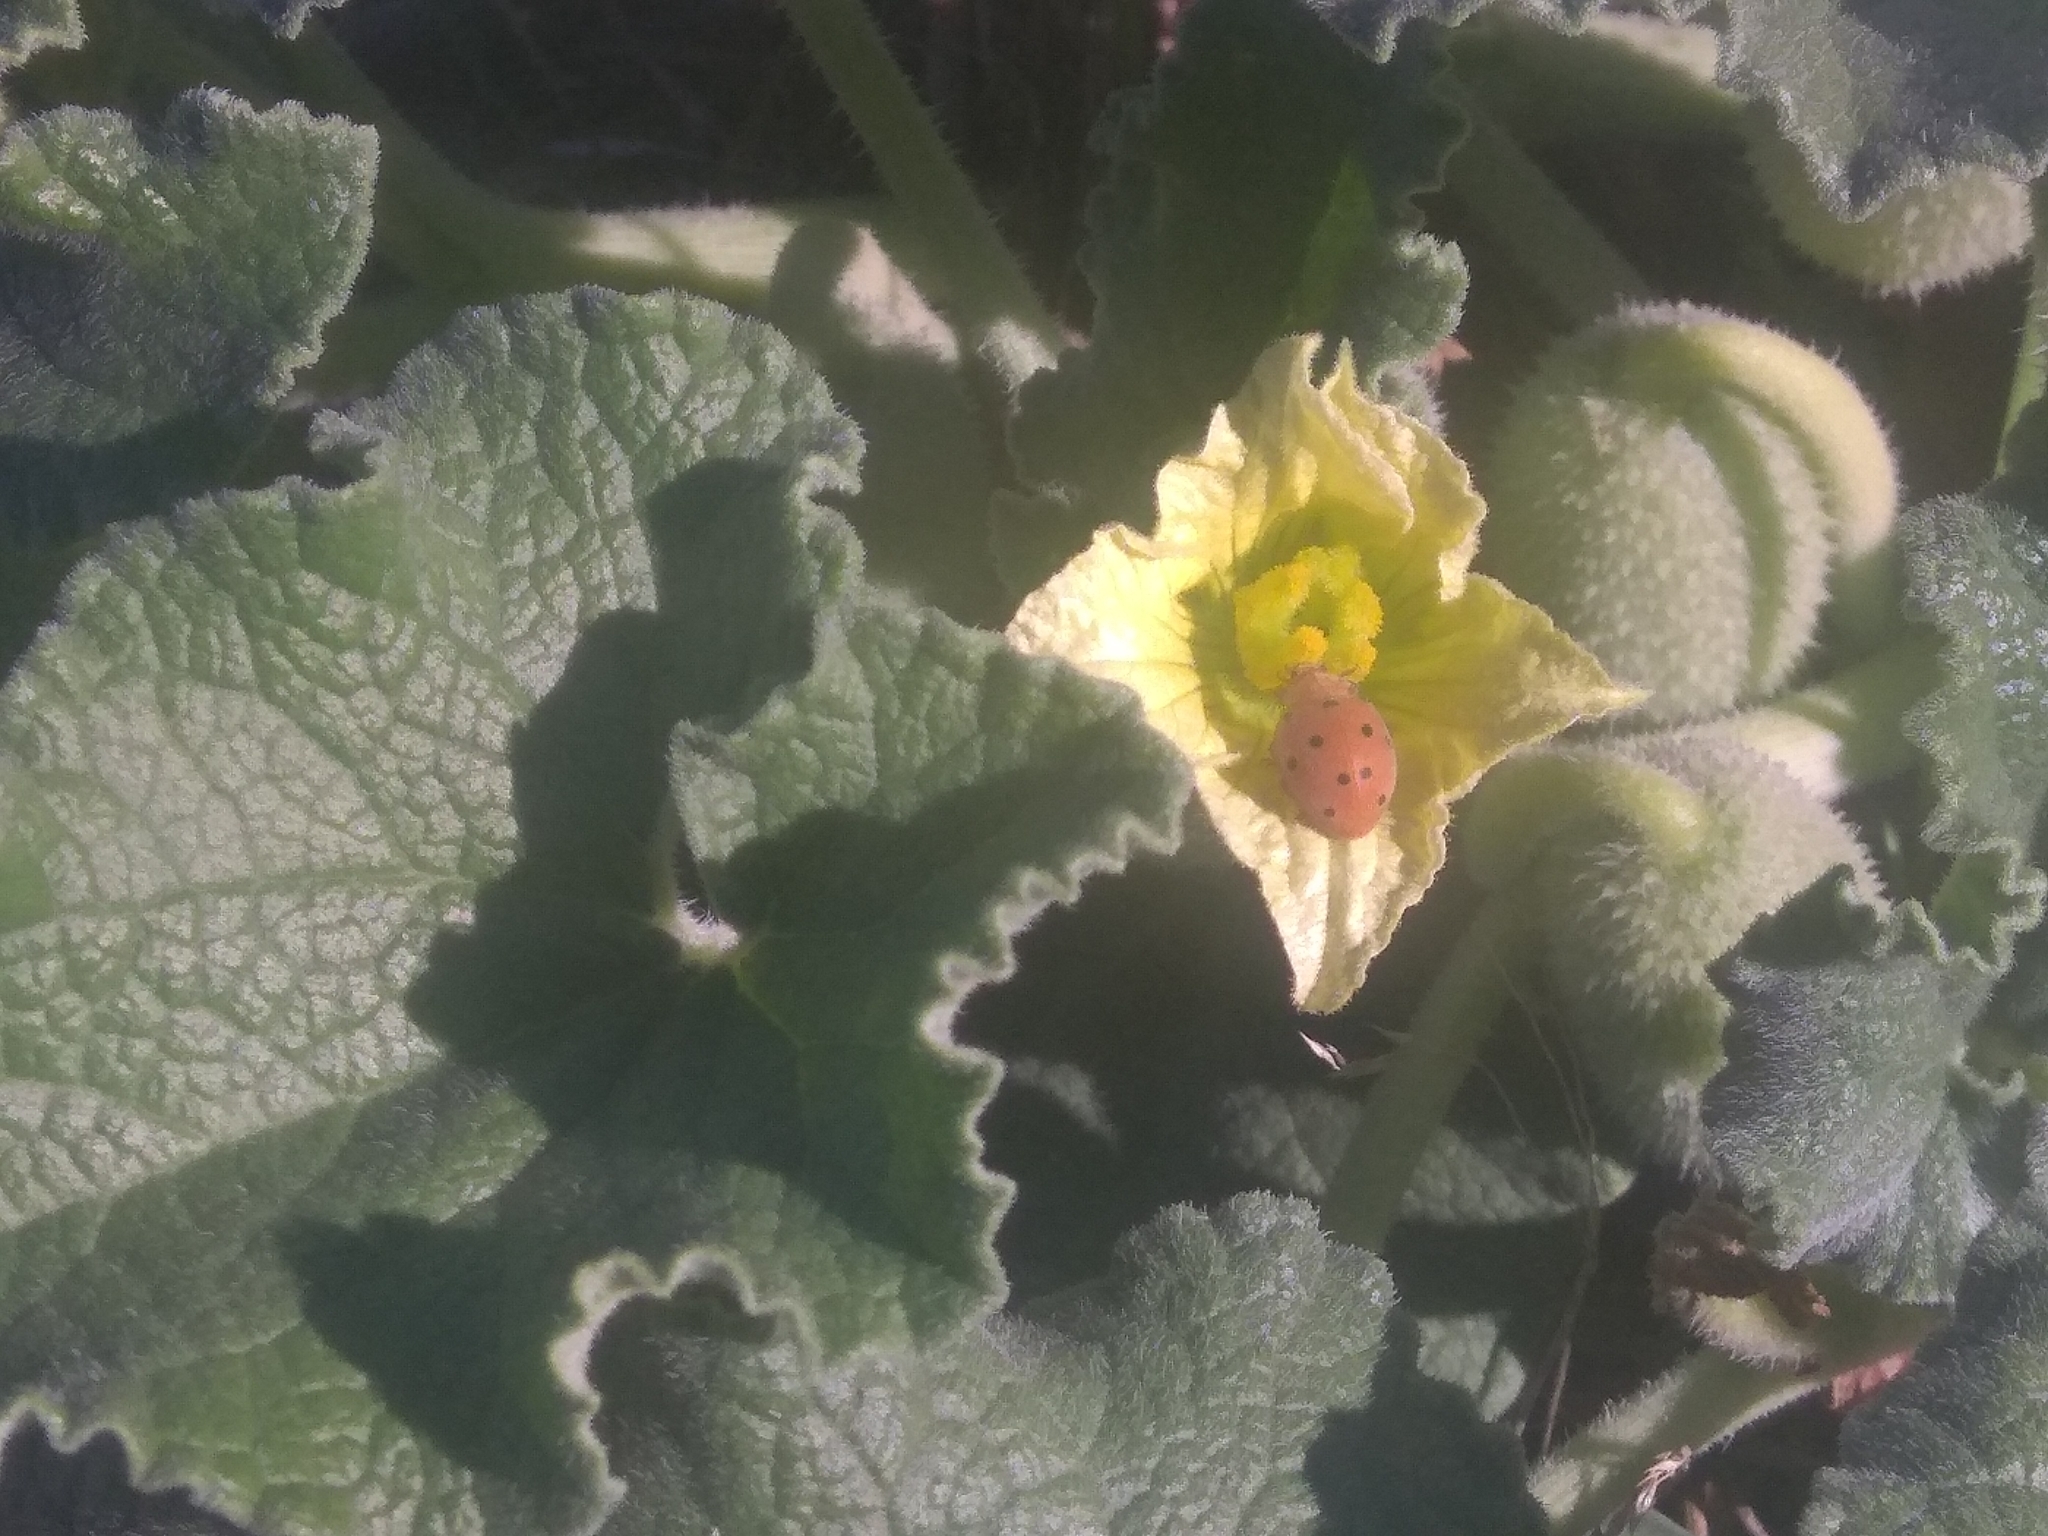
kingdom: Animalia
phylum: Arthropoda
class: Insecta
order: Coleoptera
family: Coccinellidae
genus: Henosepilachna
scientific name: Henosepilachna argus
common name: Bryony ladybird
